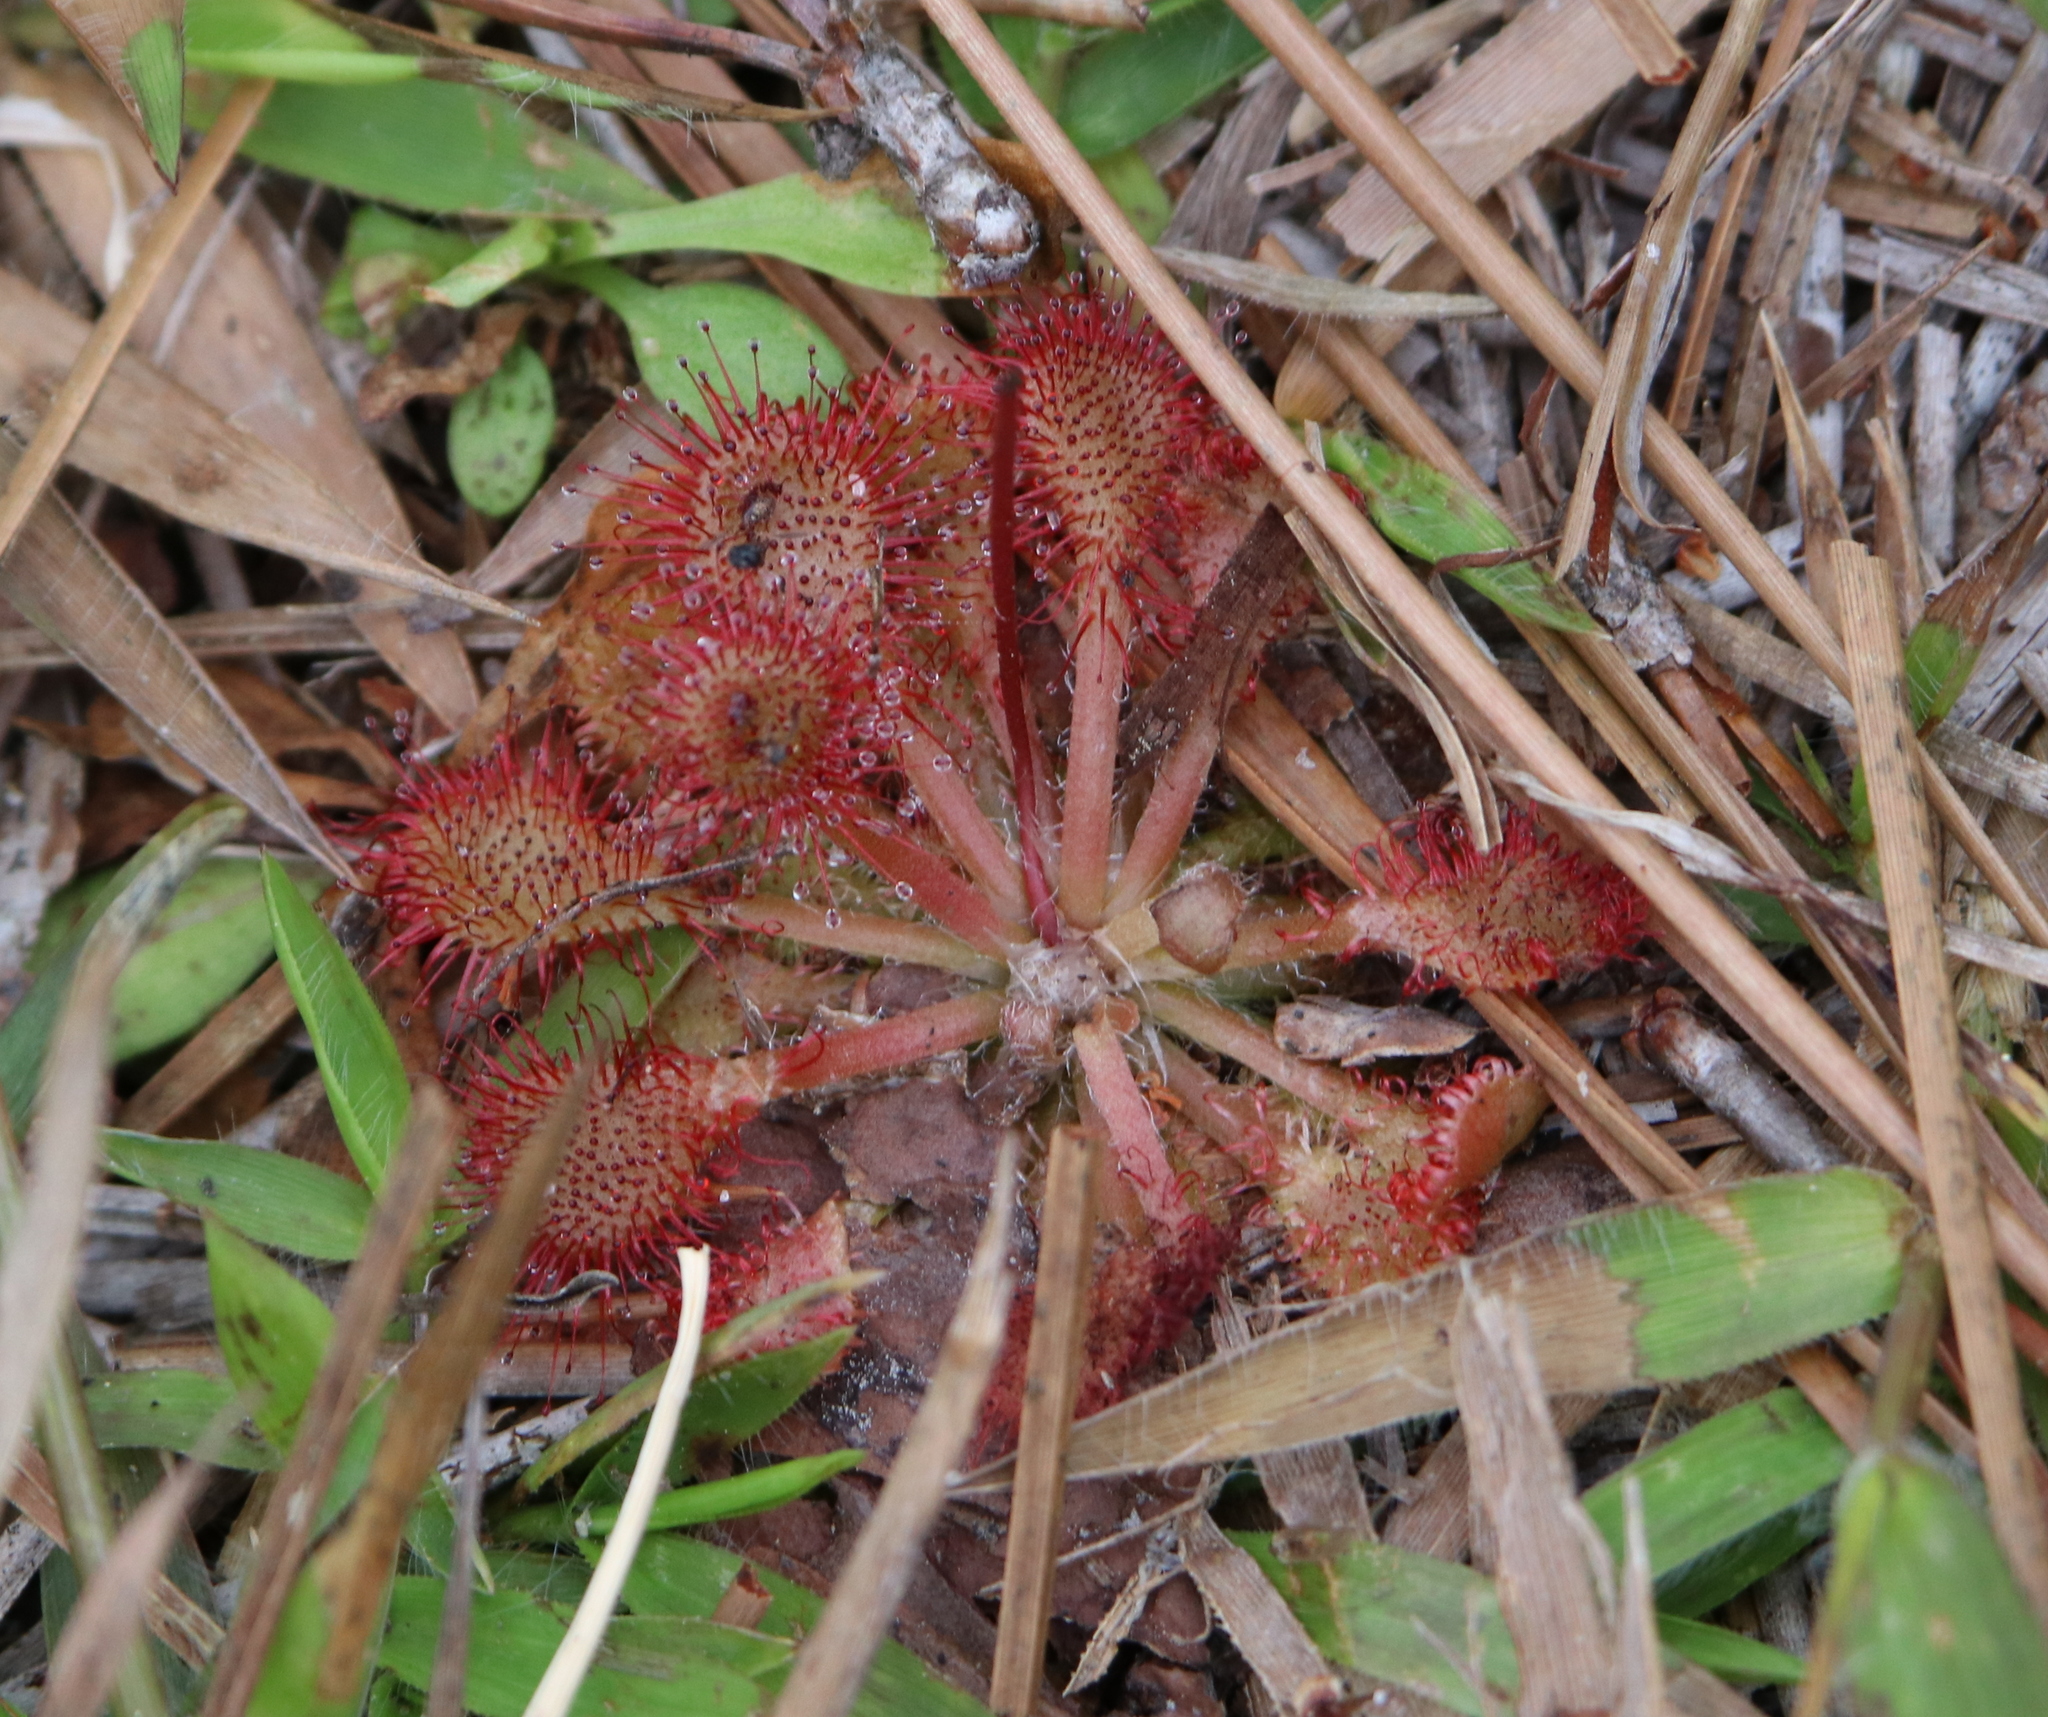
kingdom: Plantae
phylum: Tracheophyta
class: Magnoliopsida
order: Caryophyllales
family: Droseraceae
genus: Drosera
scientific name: Drosera capillaris
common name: Pink sundew
